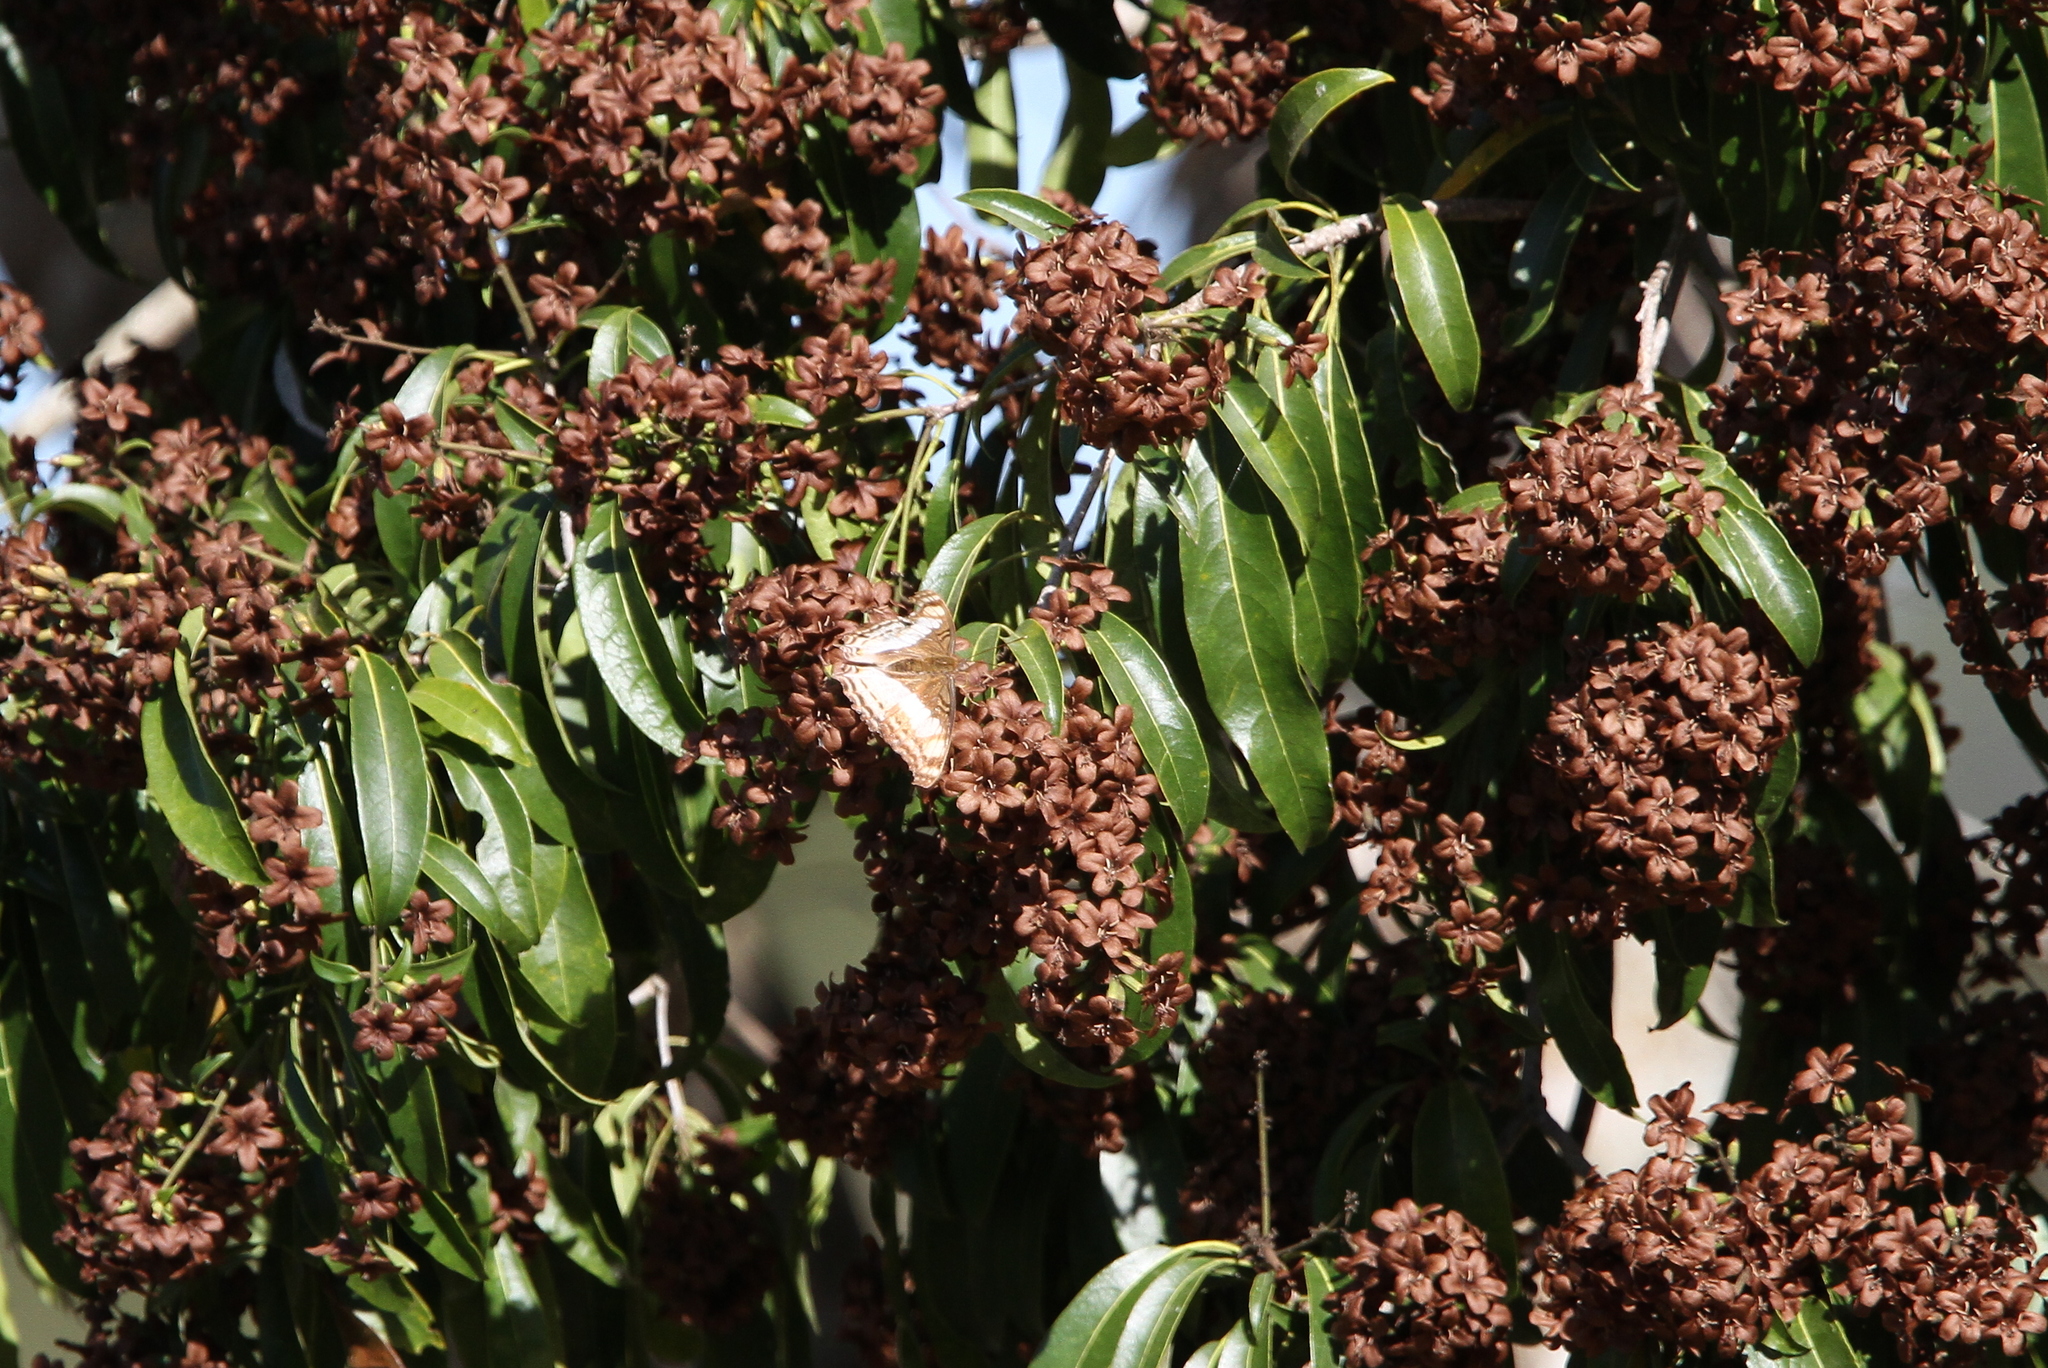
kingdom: Animalia
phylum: Arthropoda
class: Insecta
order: Lepidoptera
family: Nymphalidae
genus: Doxocopa
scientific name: Doxocopa laure
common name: Silver emperor
